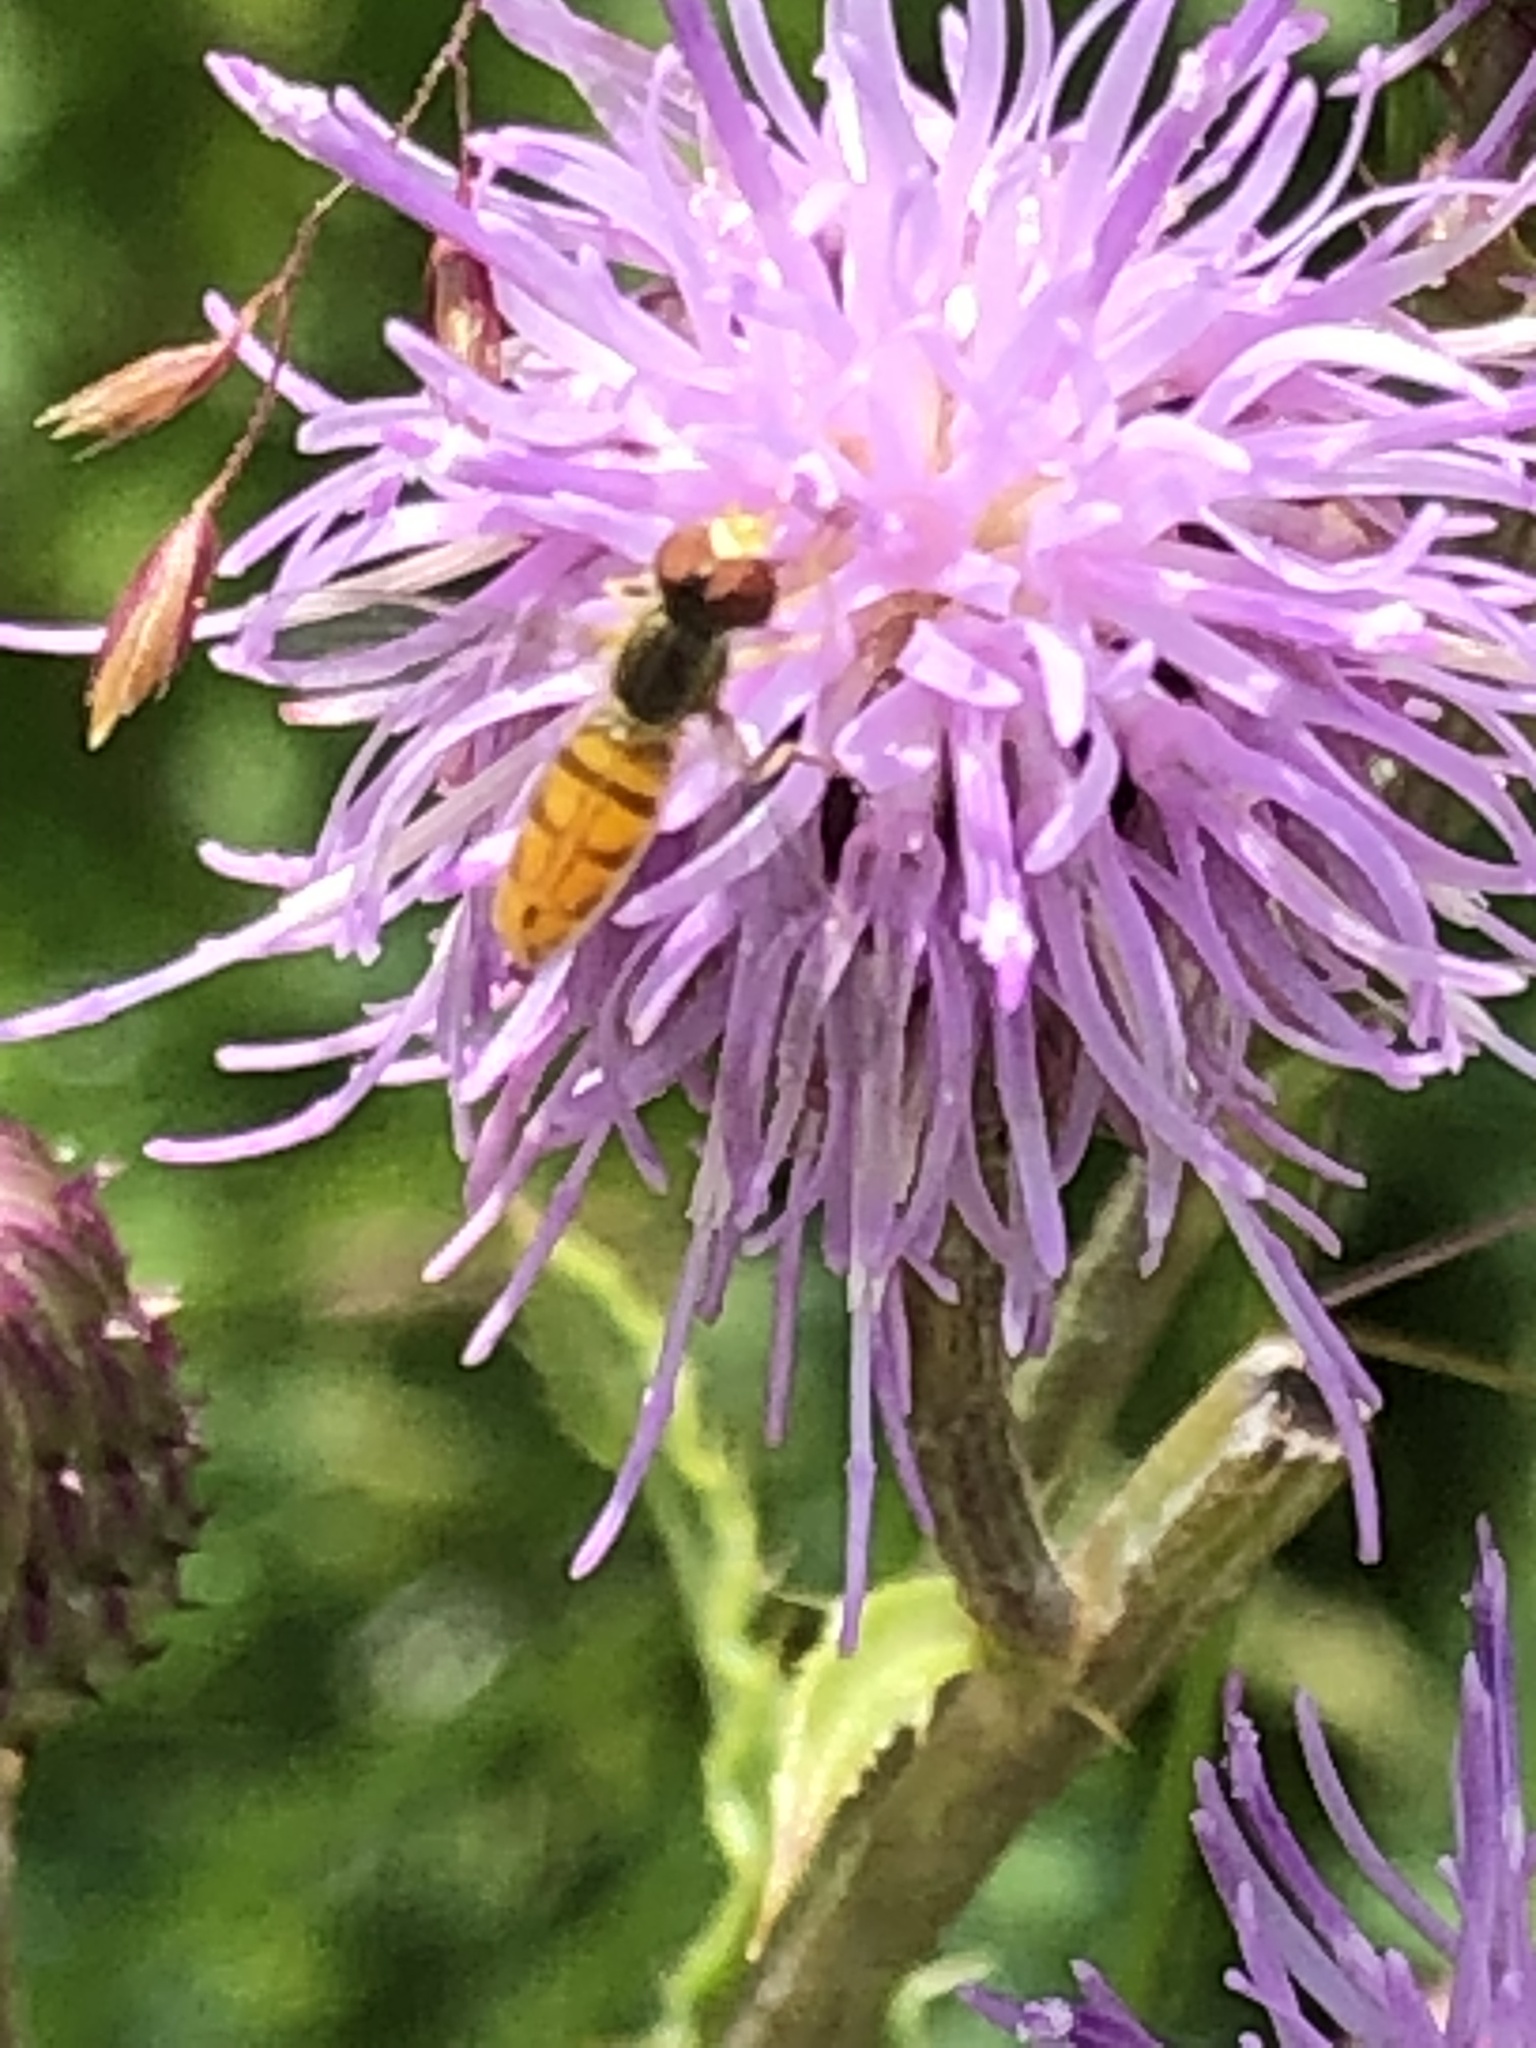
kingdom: Animalia
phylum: Arthropoda
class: Insecta
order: Diptera
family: Syrphidae
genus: Toxomerus
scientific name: Toxomerus marginatus
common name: Syrphid fly
